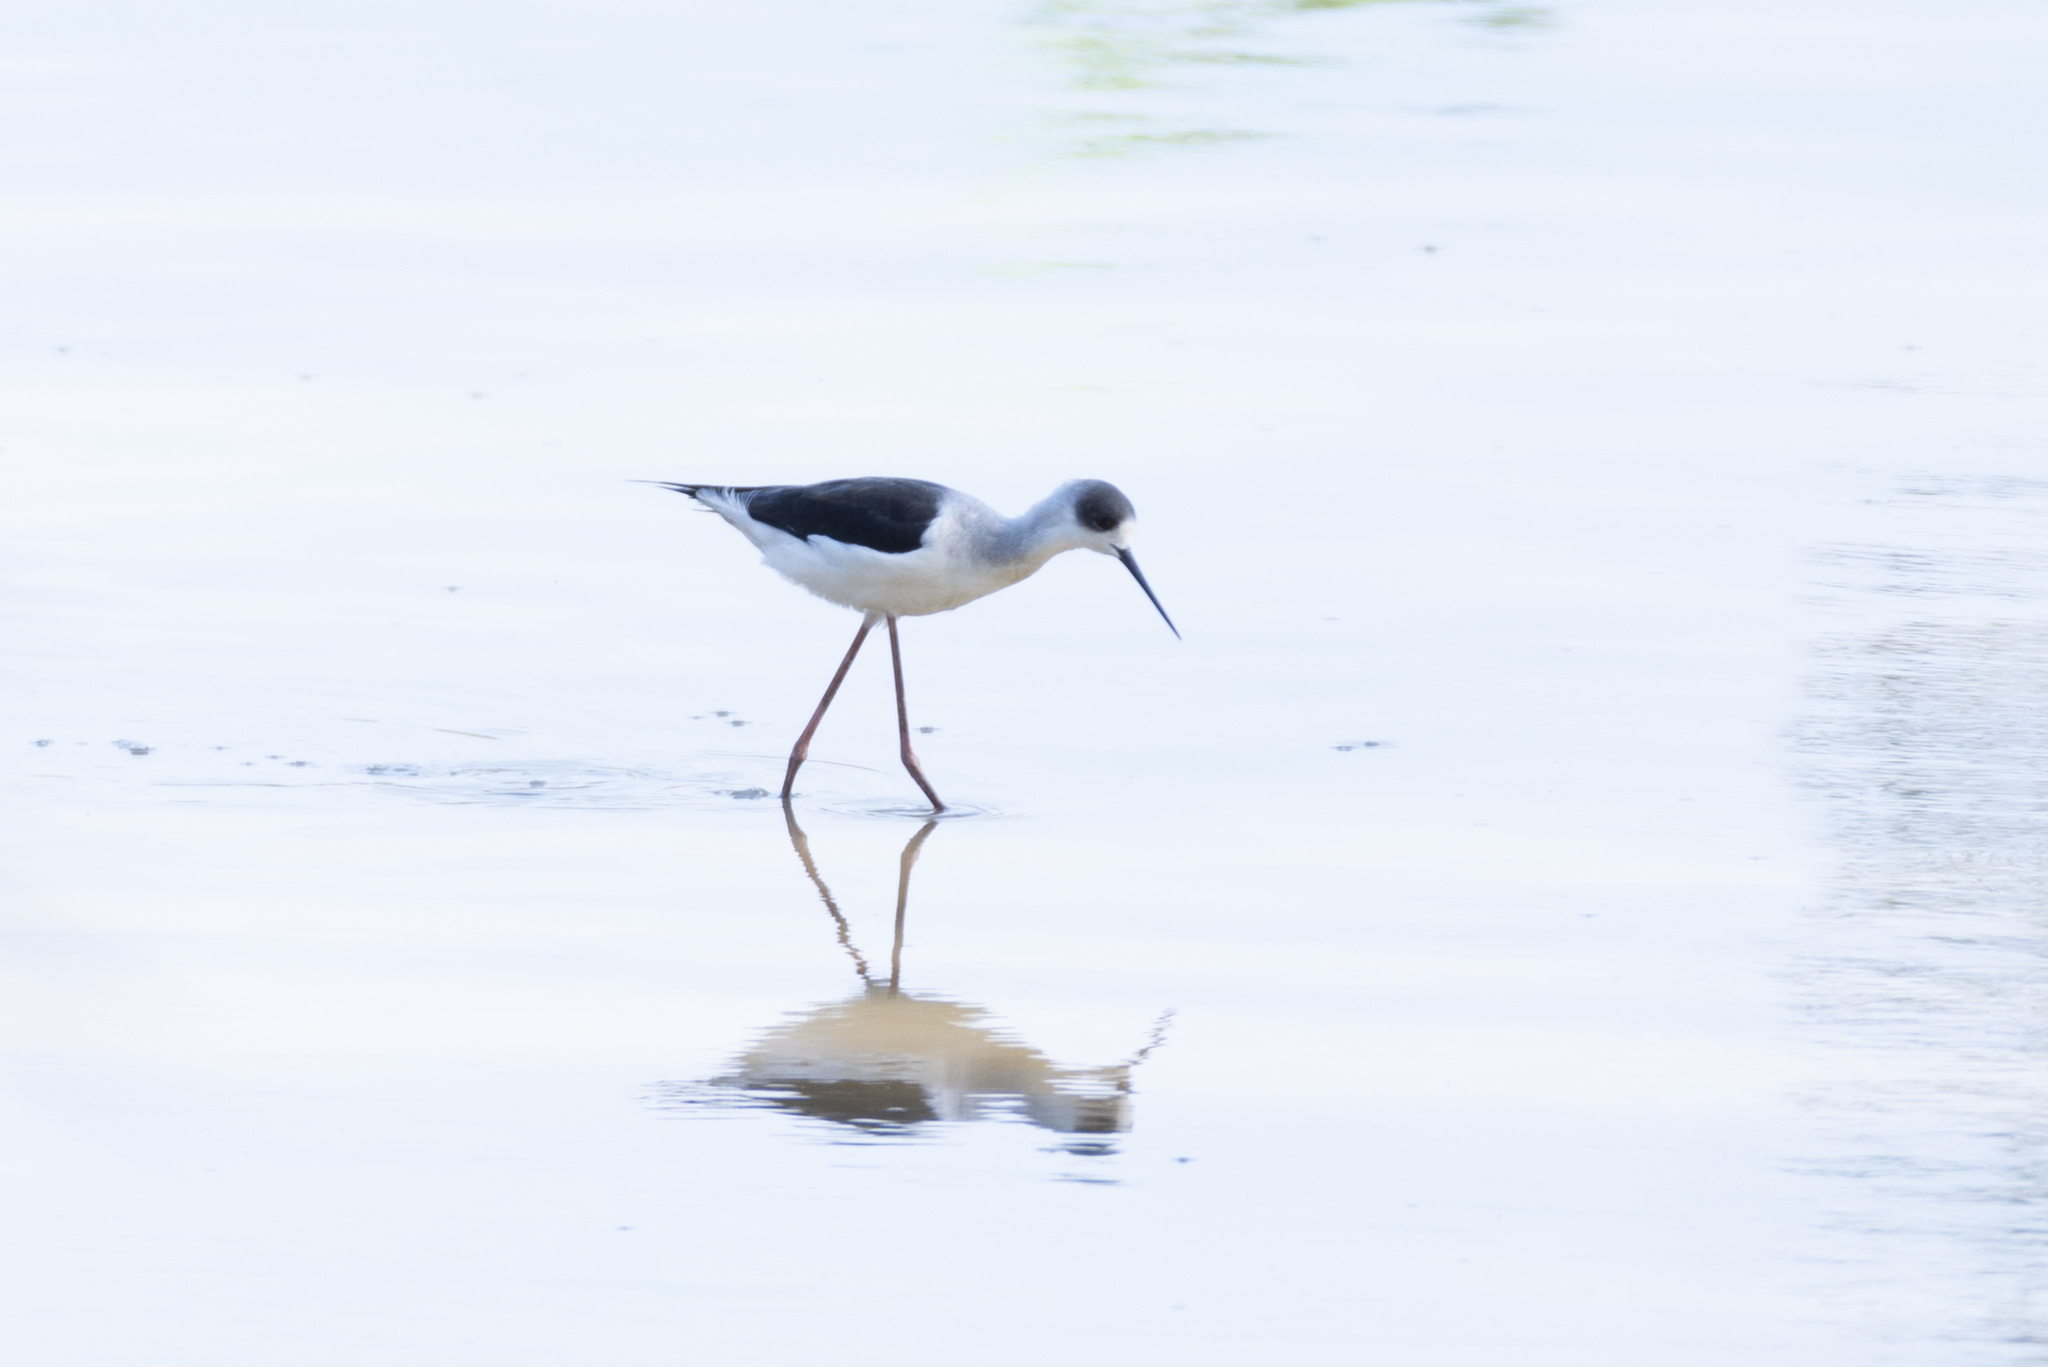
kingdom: Animalia
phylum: Chordata
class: Aves
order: Charadriiformes
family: Recurvirostridae
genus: Himantopus
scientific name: Himantopus himantopus
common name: Black-winged stilt
